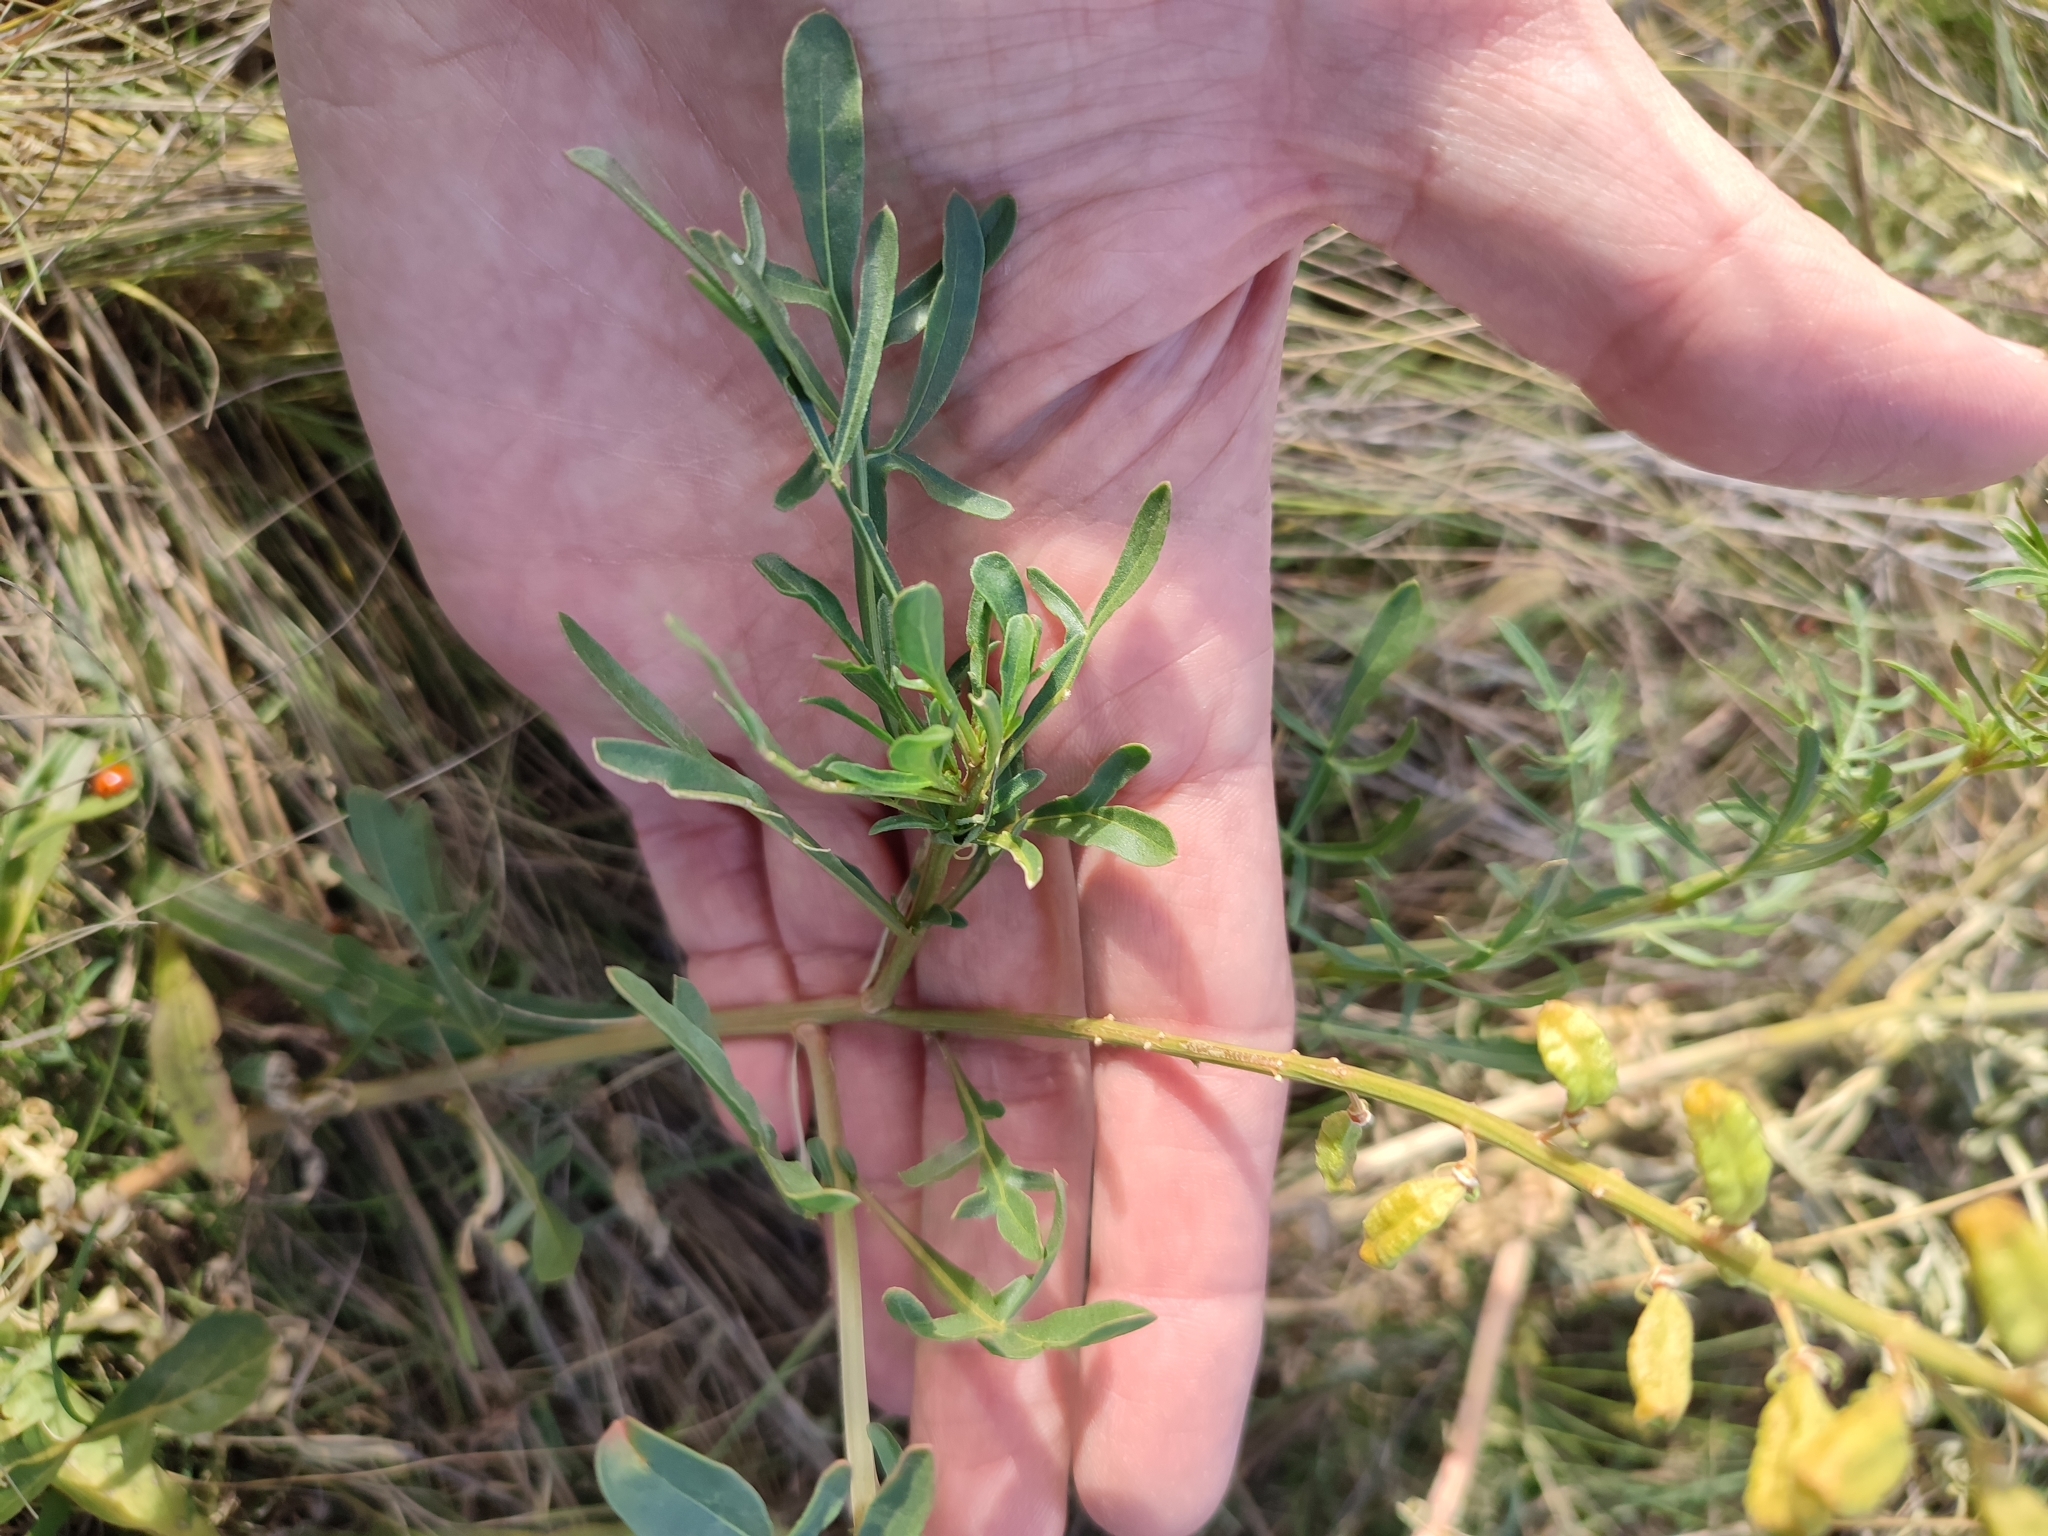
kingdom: Plantae
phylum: Tracheophyta
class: Magnoliopsida
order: Brassicales
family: Resedaceae
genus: Reseda
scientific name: Reseda lutea
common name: Wild mignonette
